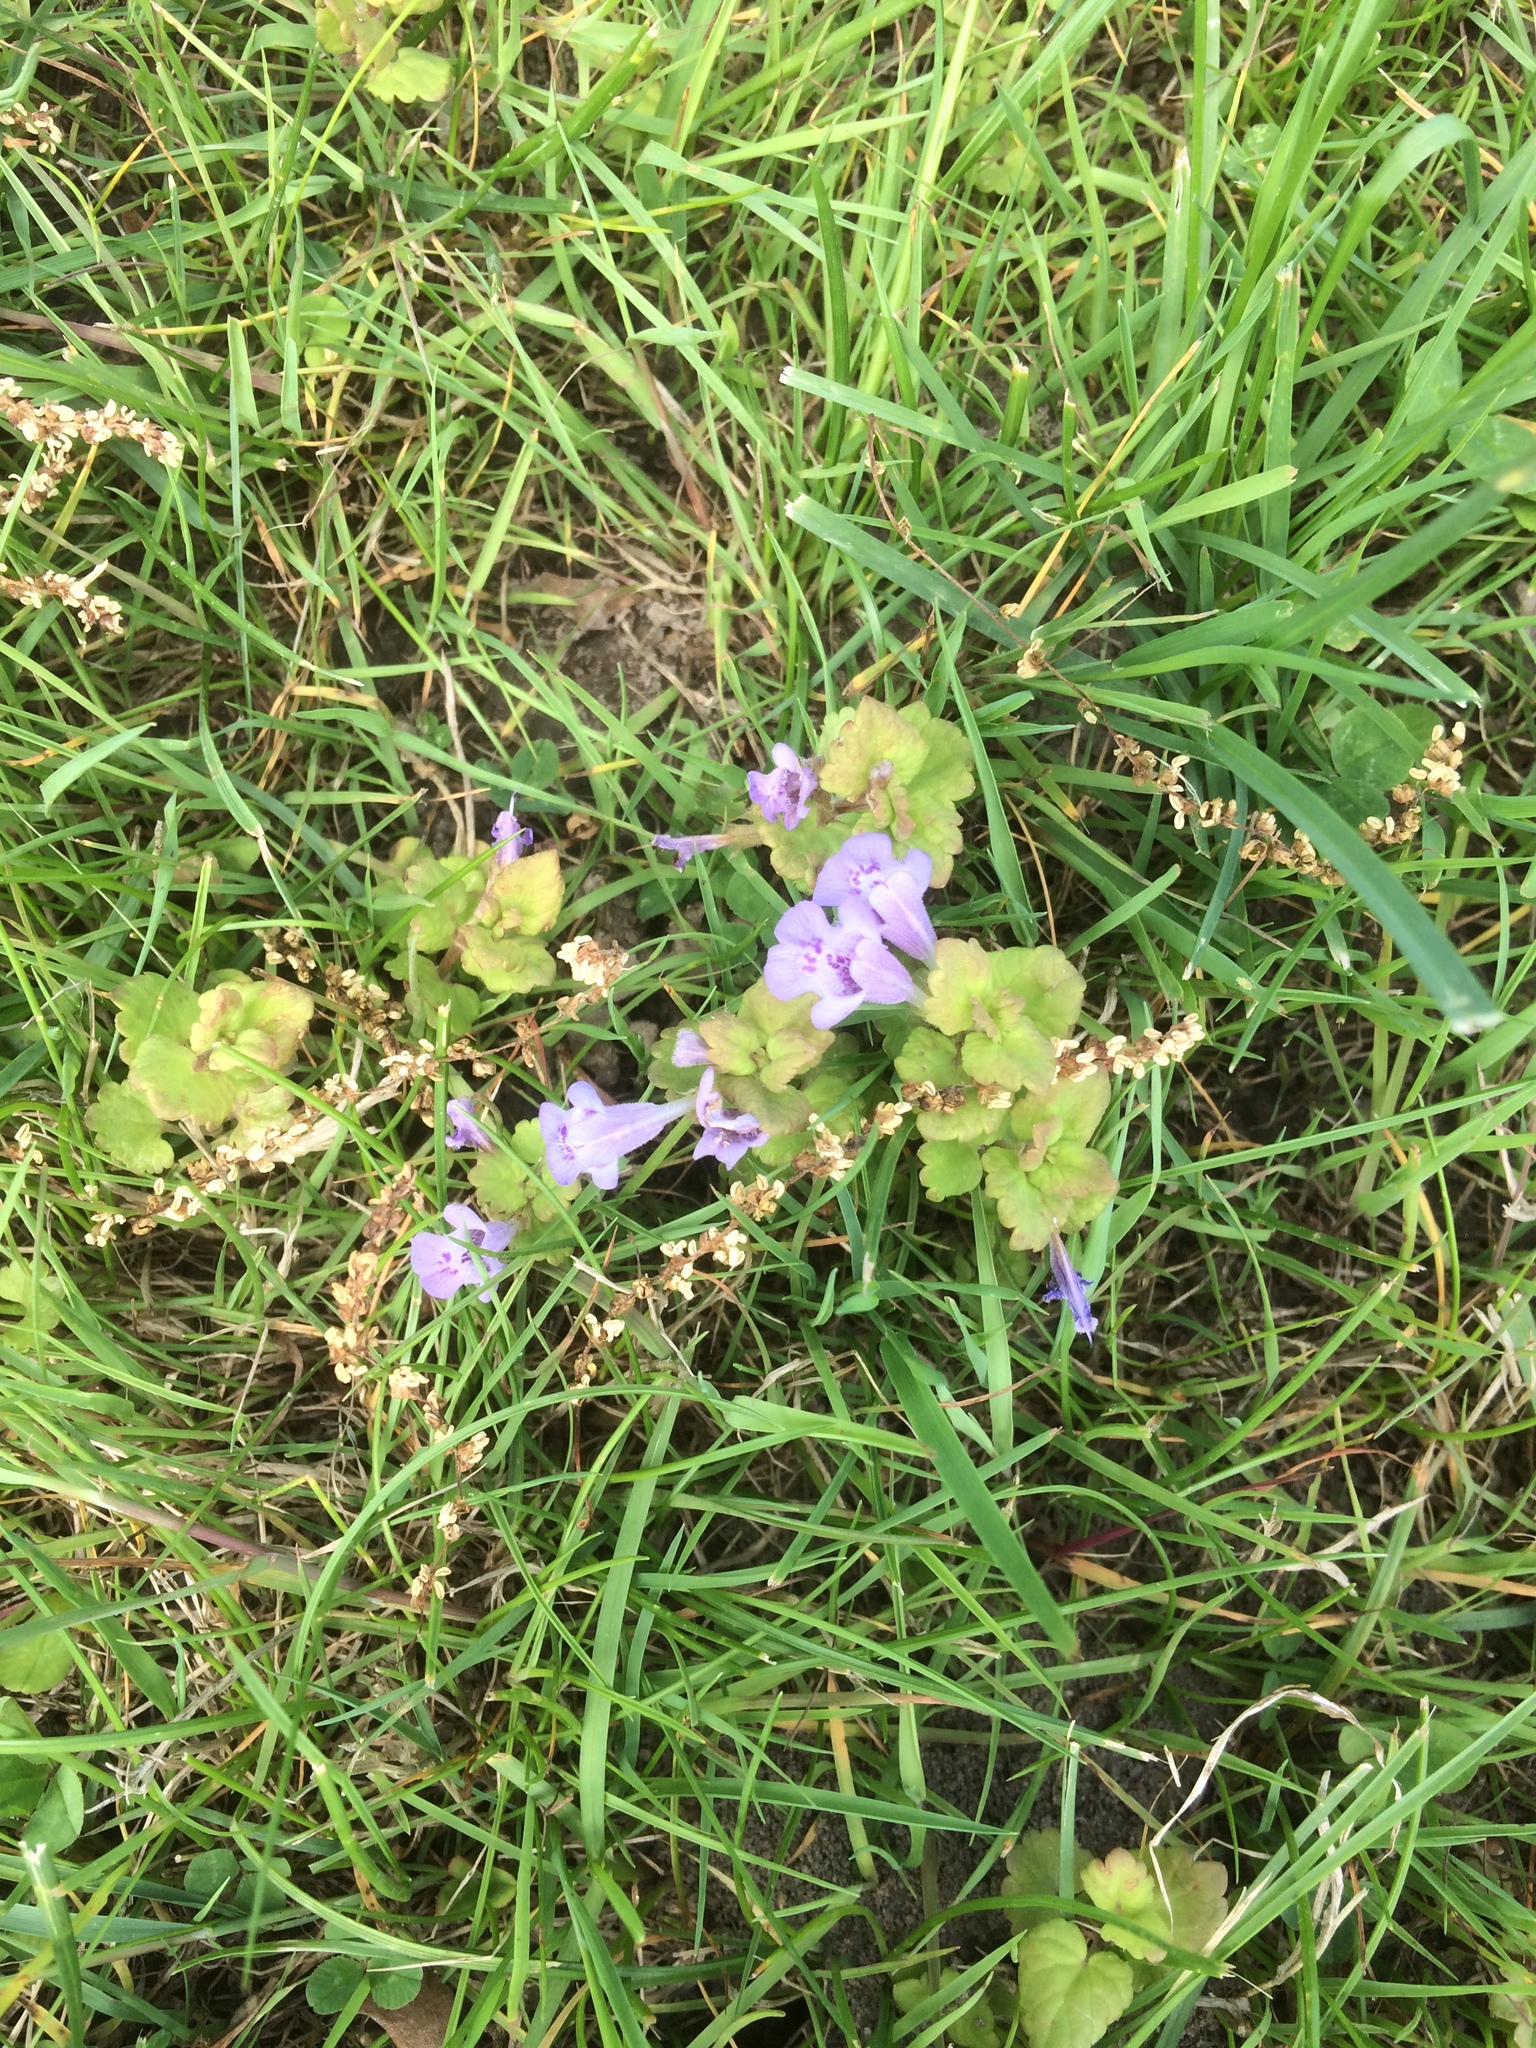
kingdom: Plantae
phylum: Tracheophyta
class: Magnoliopsida
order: Lamiales
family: Lamiaceae
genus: Glechoma
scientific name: Glechoma hederacea
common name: Ground ivy
